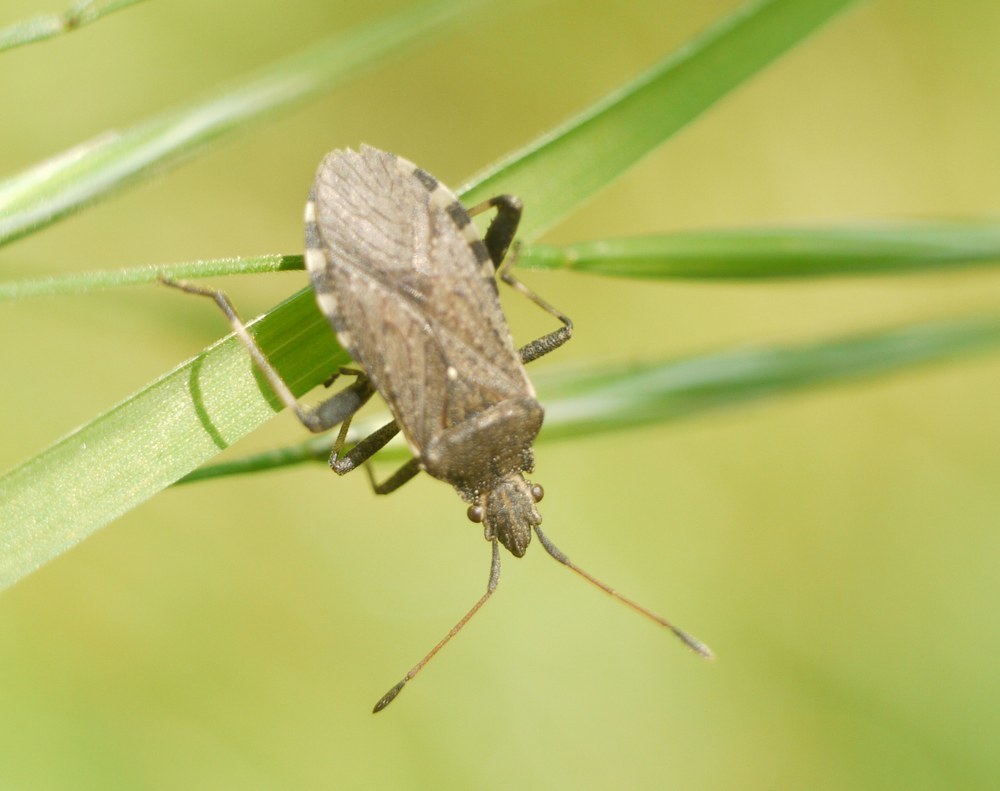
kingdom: Animalia
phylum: Arthropoda
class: Insecta
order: Hemiptera
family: Coreidae
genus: Ceraleptus
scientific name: Ceraleptus gracilicornis
